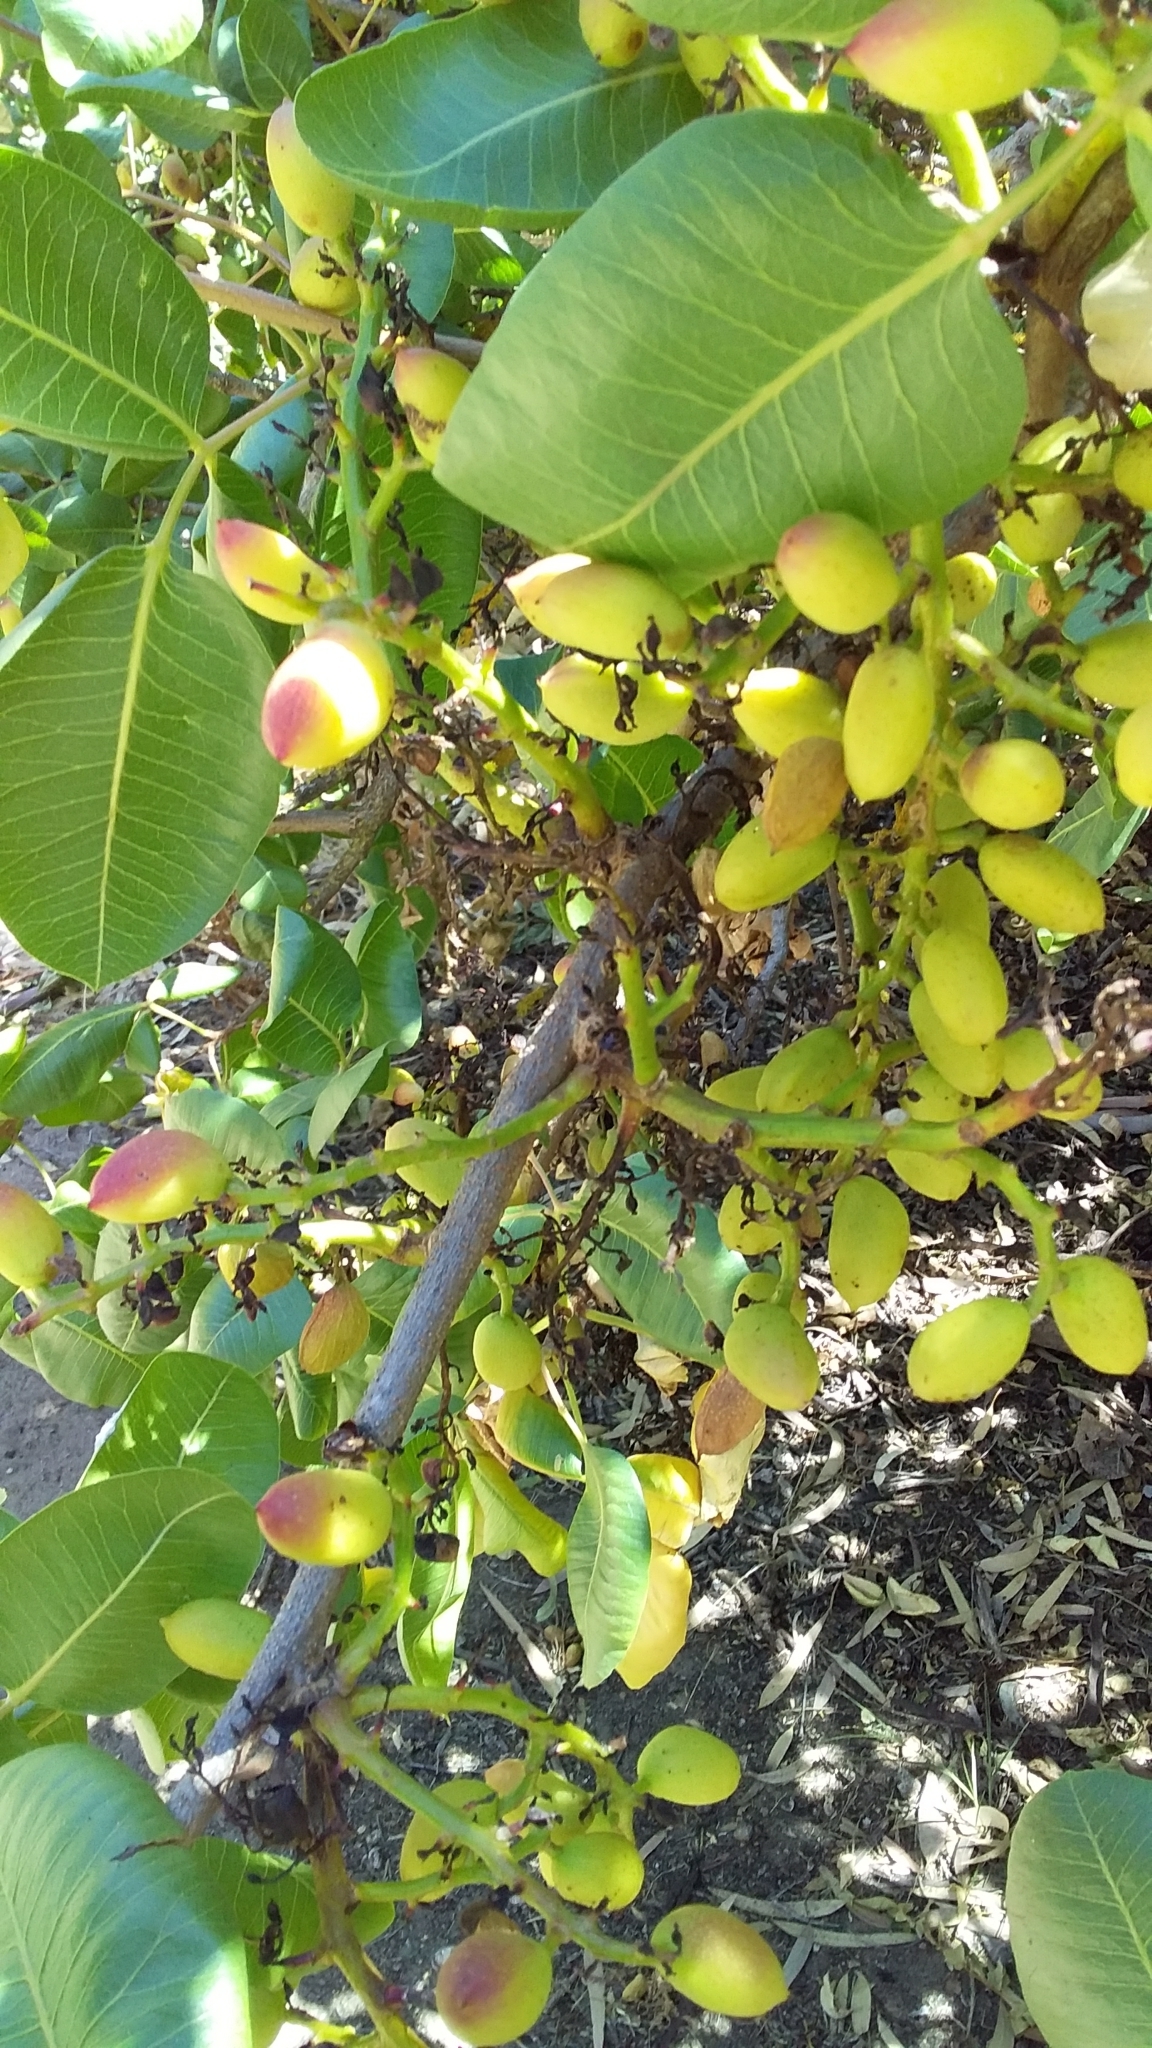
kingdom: Plantae
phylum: Tracheophyta
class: Magnoliopsida
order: Sapindales
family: Anacardiaceae
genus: Pistacia
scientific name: Pistacia vera
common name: Pistachio
